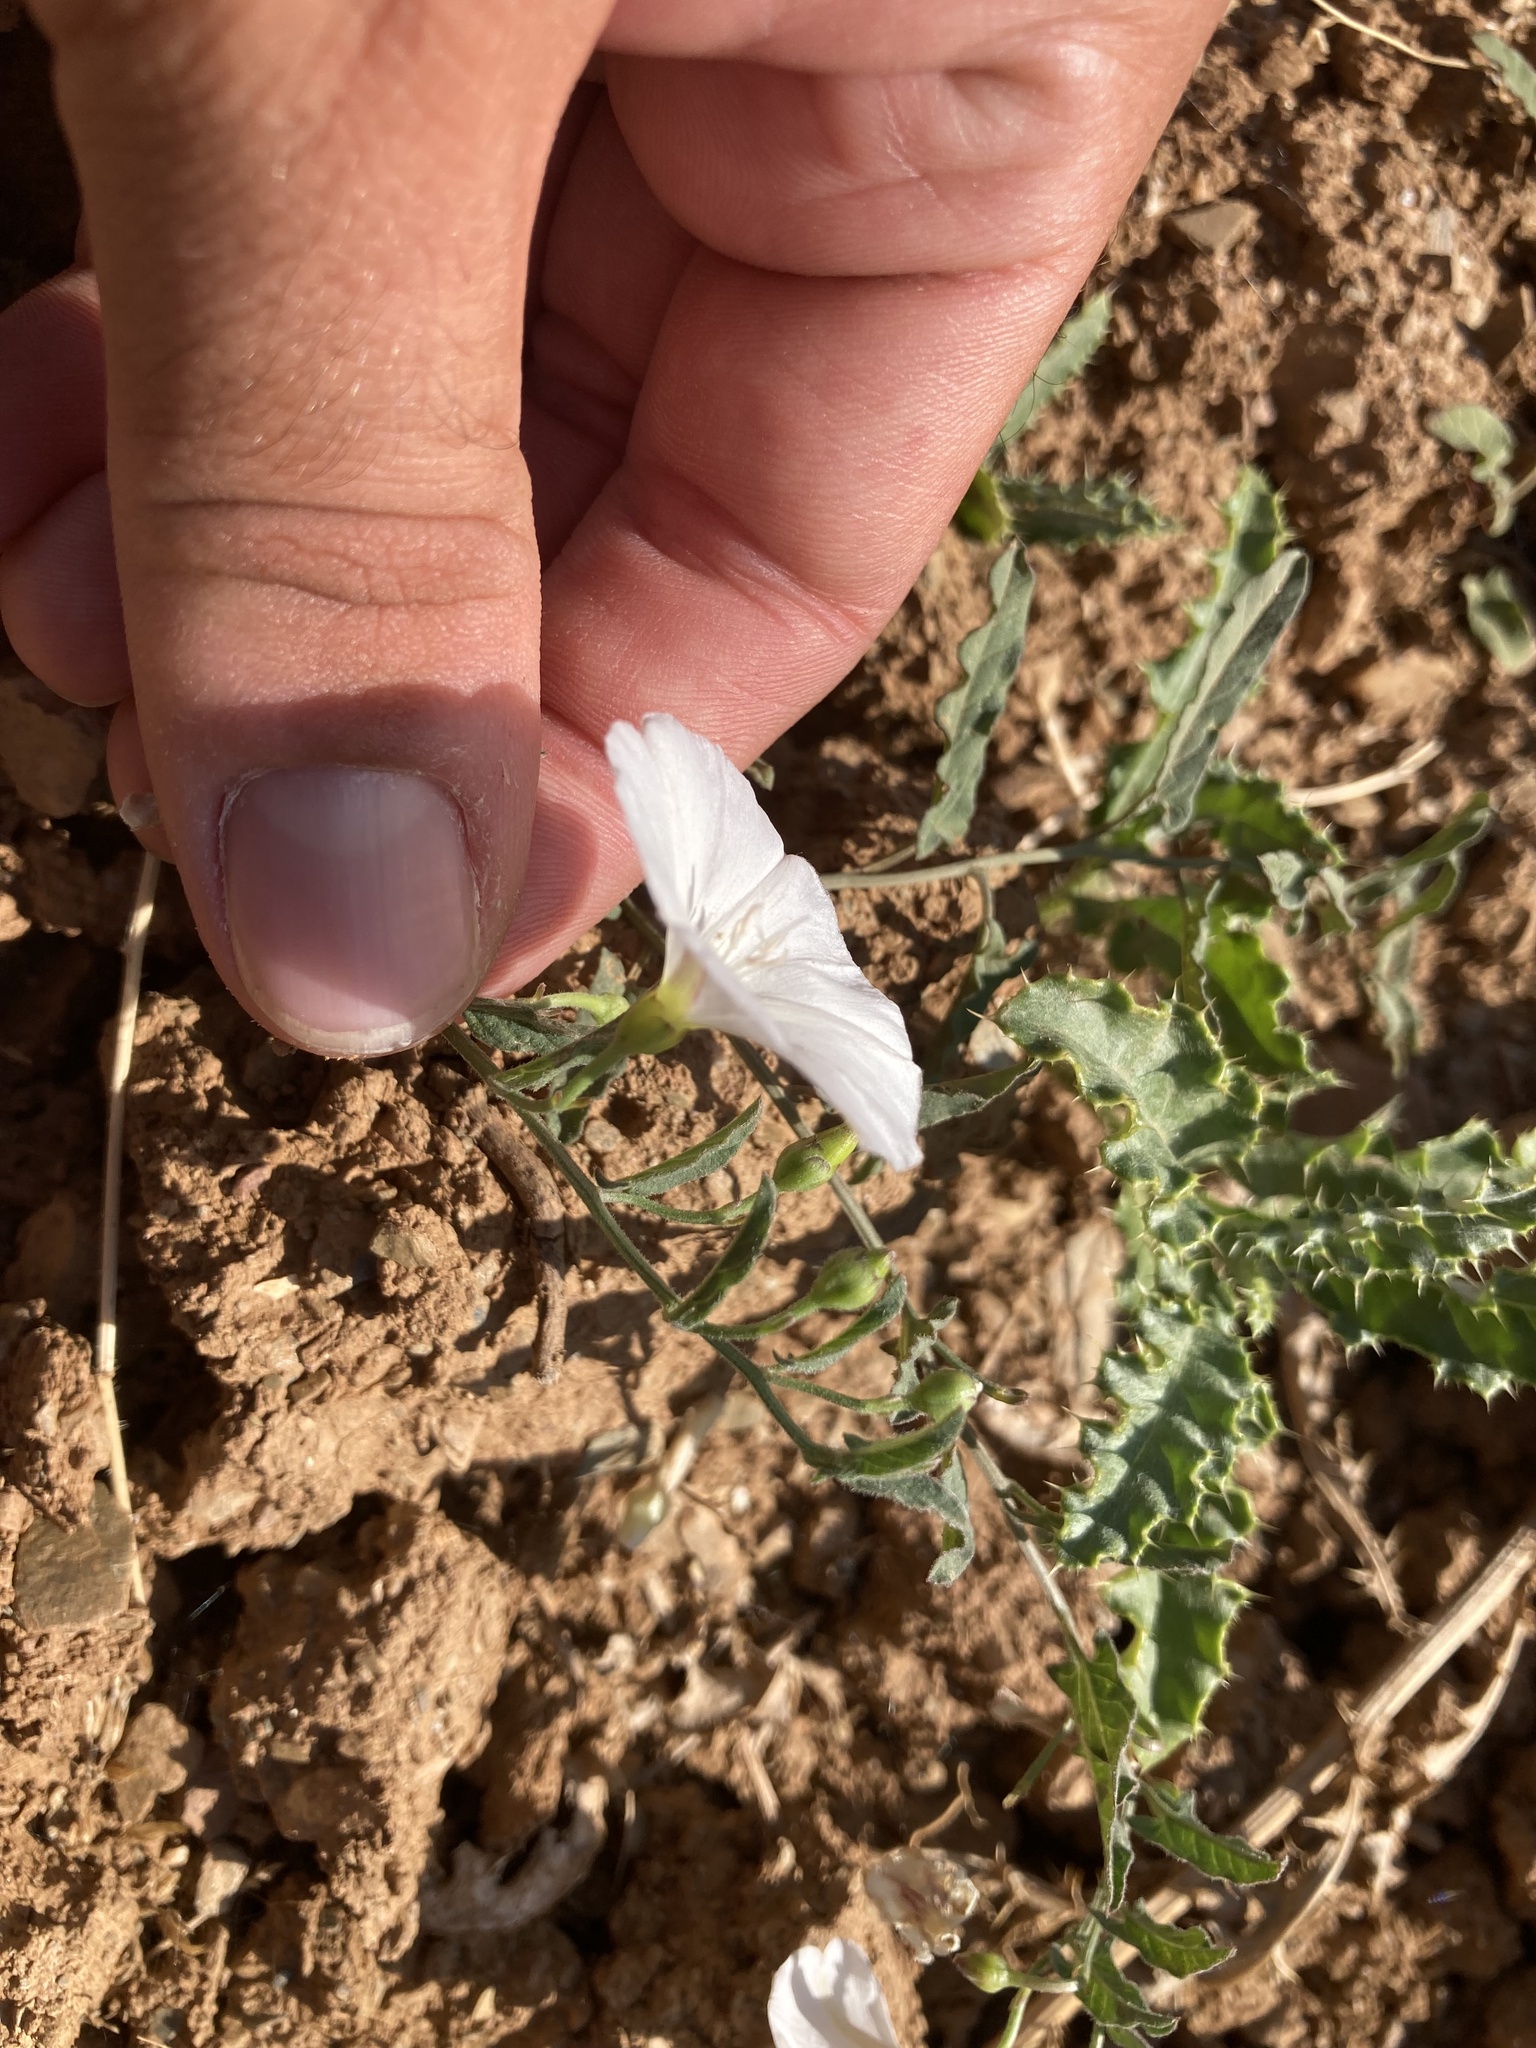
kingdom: Plantae
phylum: Tracheophyta
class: Magnoliopsida
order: Solanales
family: Convolvulaceae
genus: Convolvulus
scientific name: Convolvulus arvensis
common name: Field bindweed
